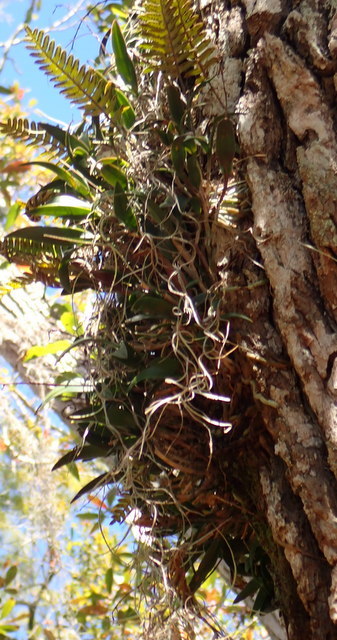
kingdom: Plantae
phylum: Tracheophyta
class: Liliopsida
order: Asparagales
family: Orchidaceae
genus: Epidendrum
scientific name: Epidendrum conopseum
